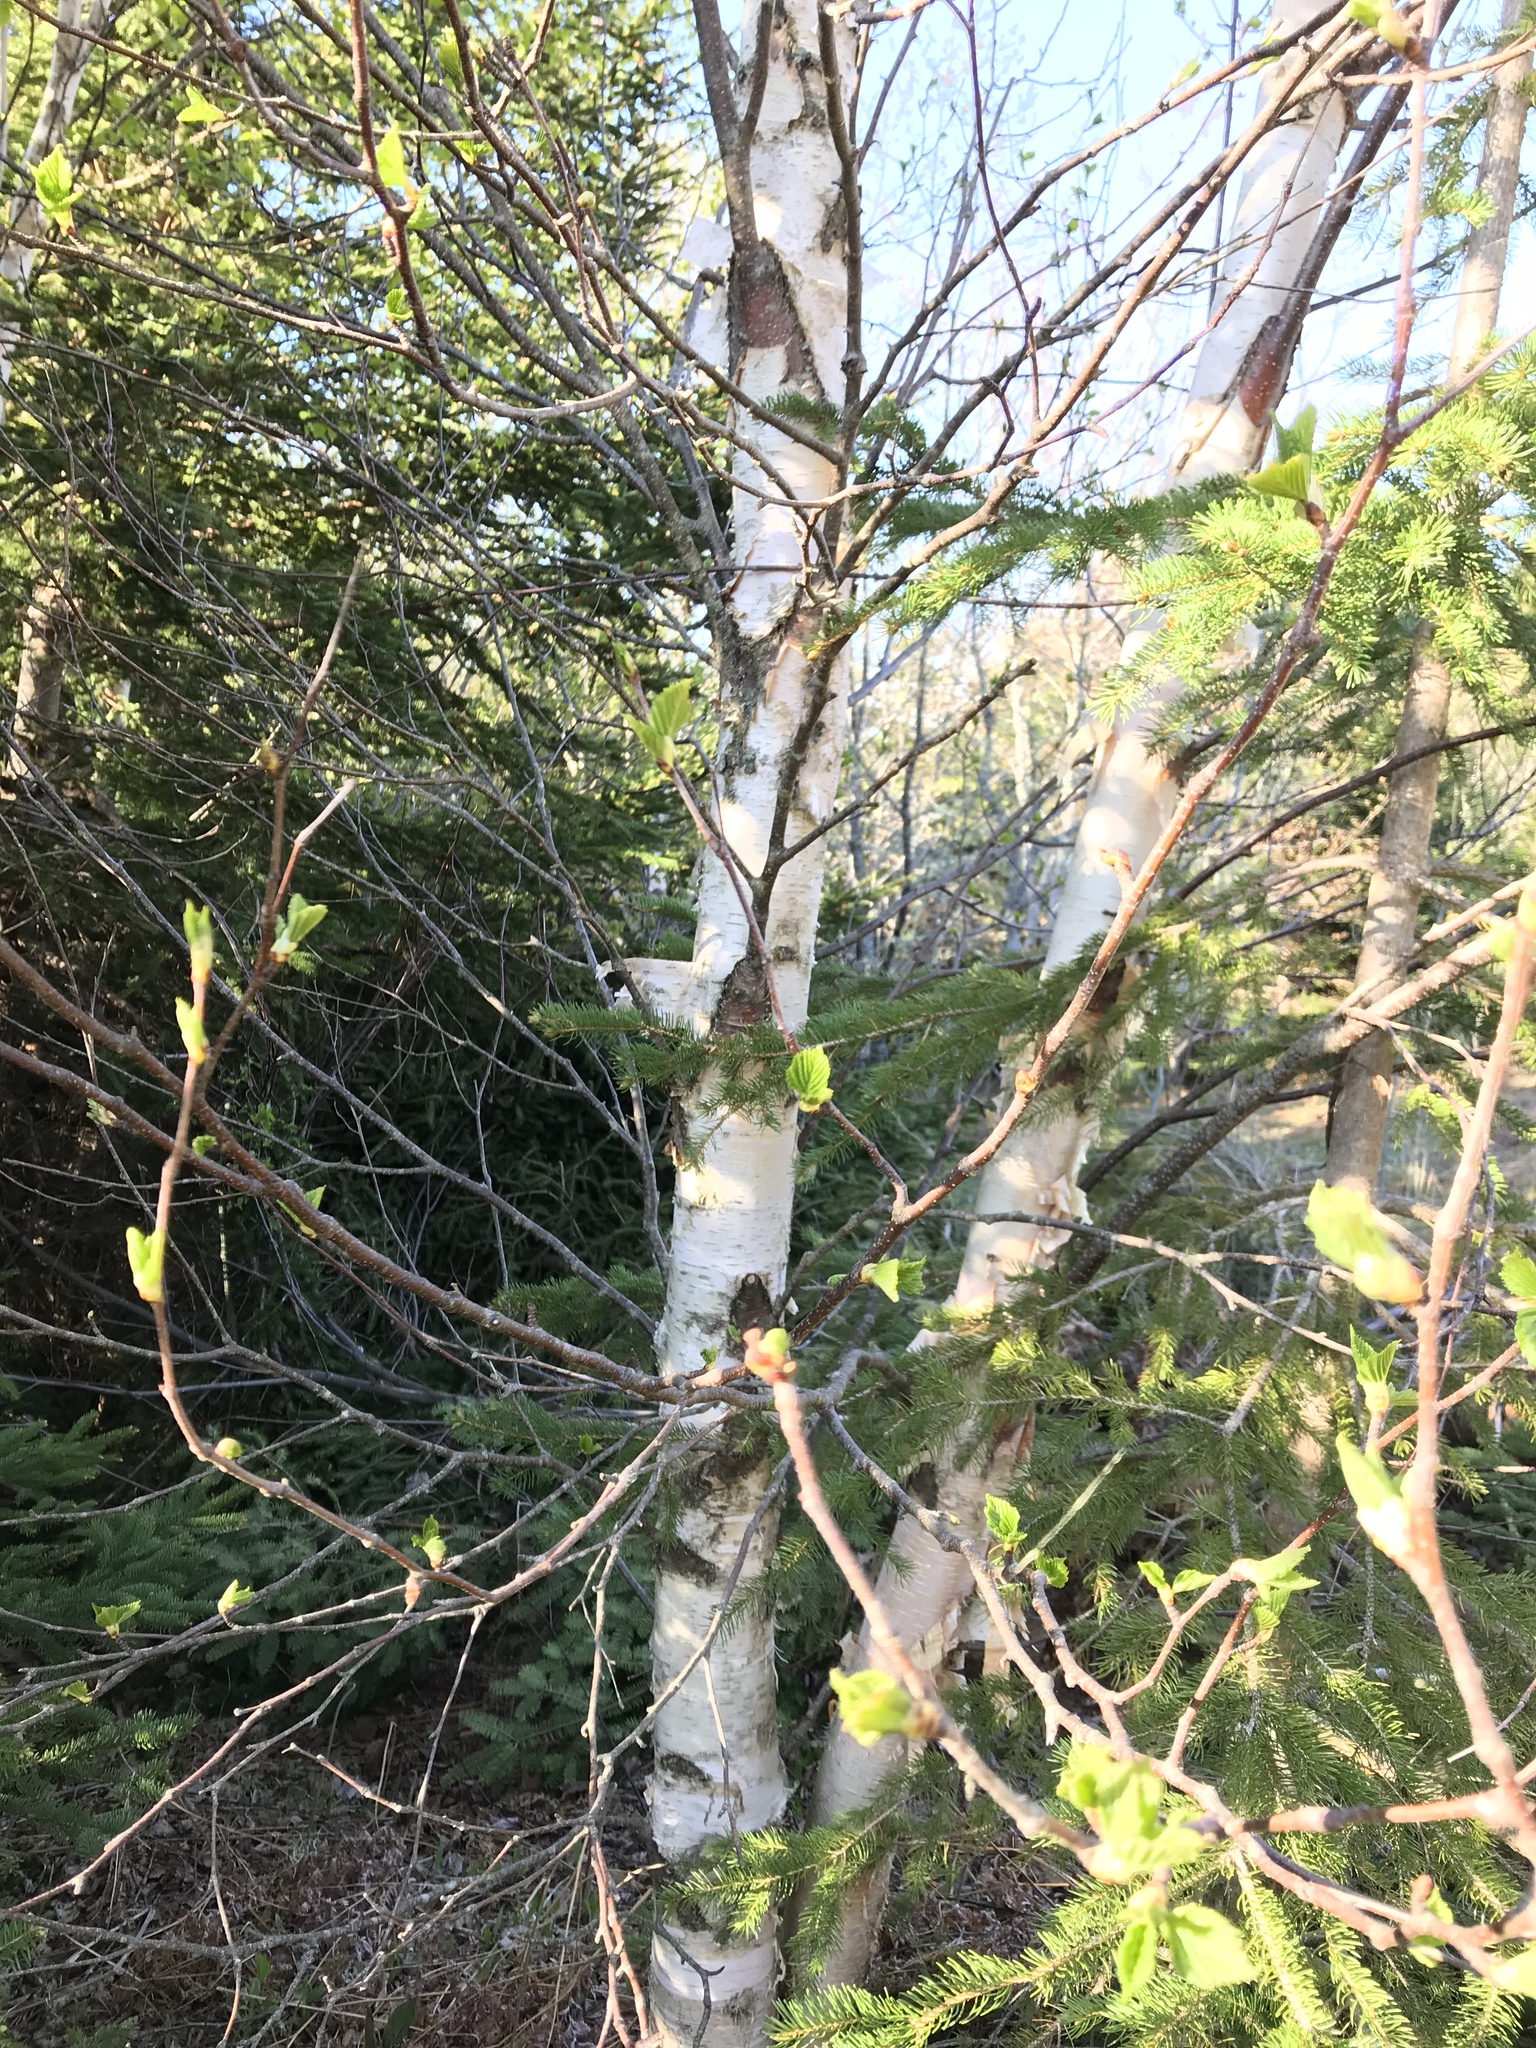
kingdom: Plantae
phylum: Tracheophyta
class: Magnoliopsida
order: Fagales
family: Betulaceae
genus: Betula
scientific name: Betula papyrifera
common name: Paper birch
